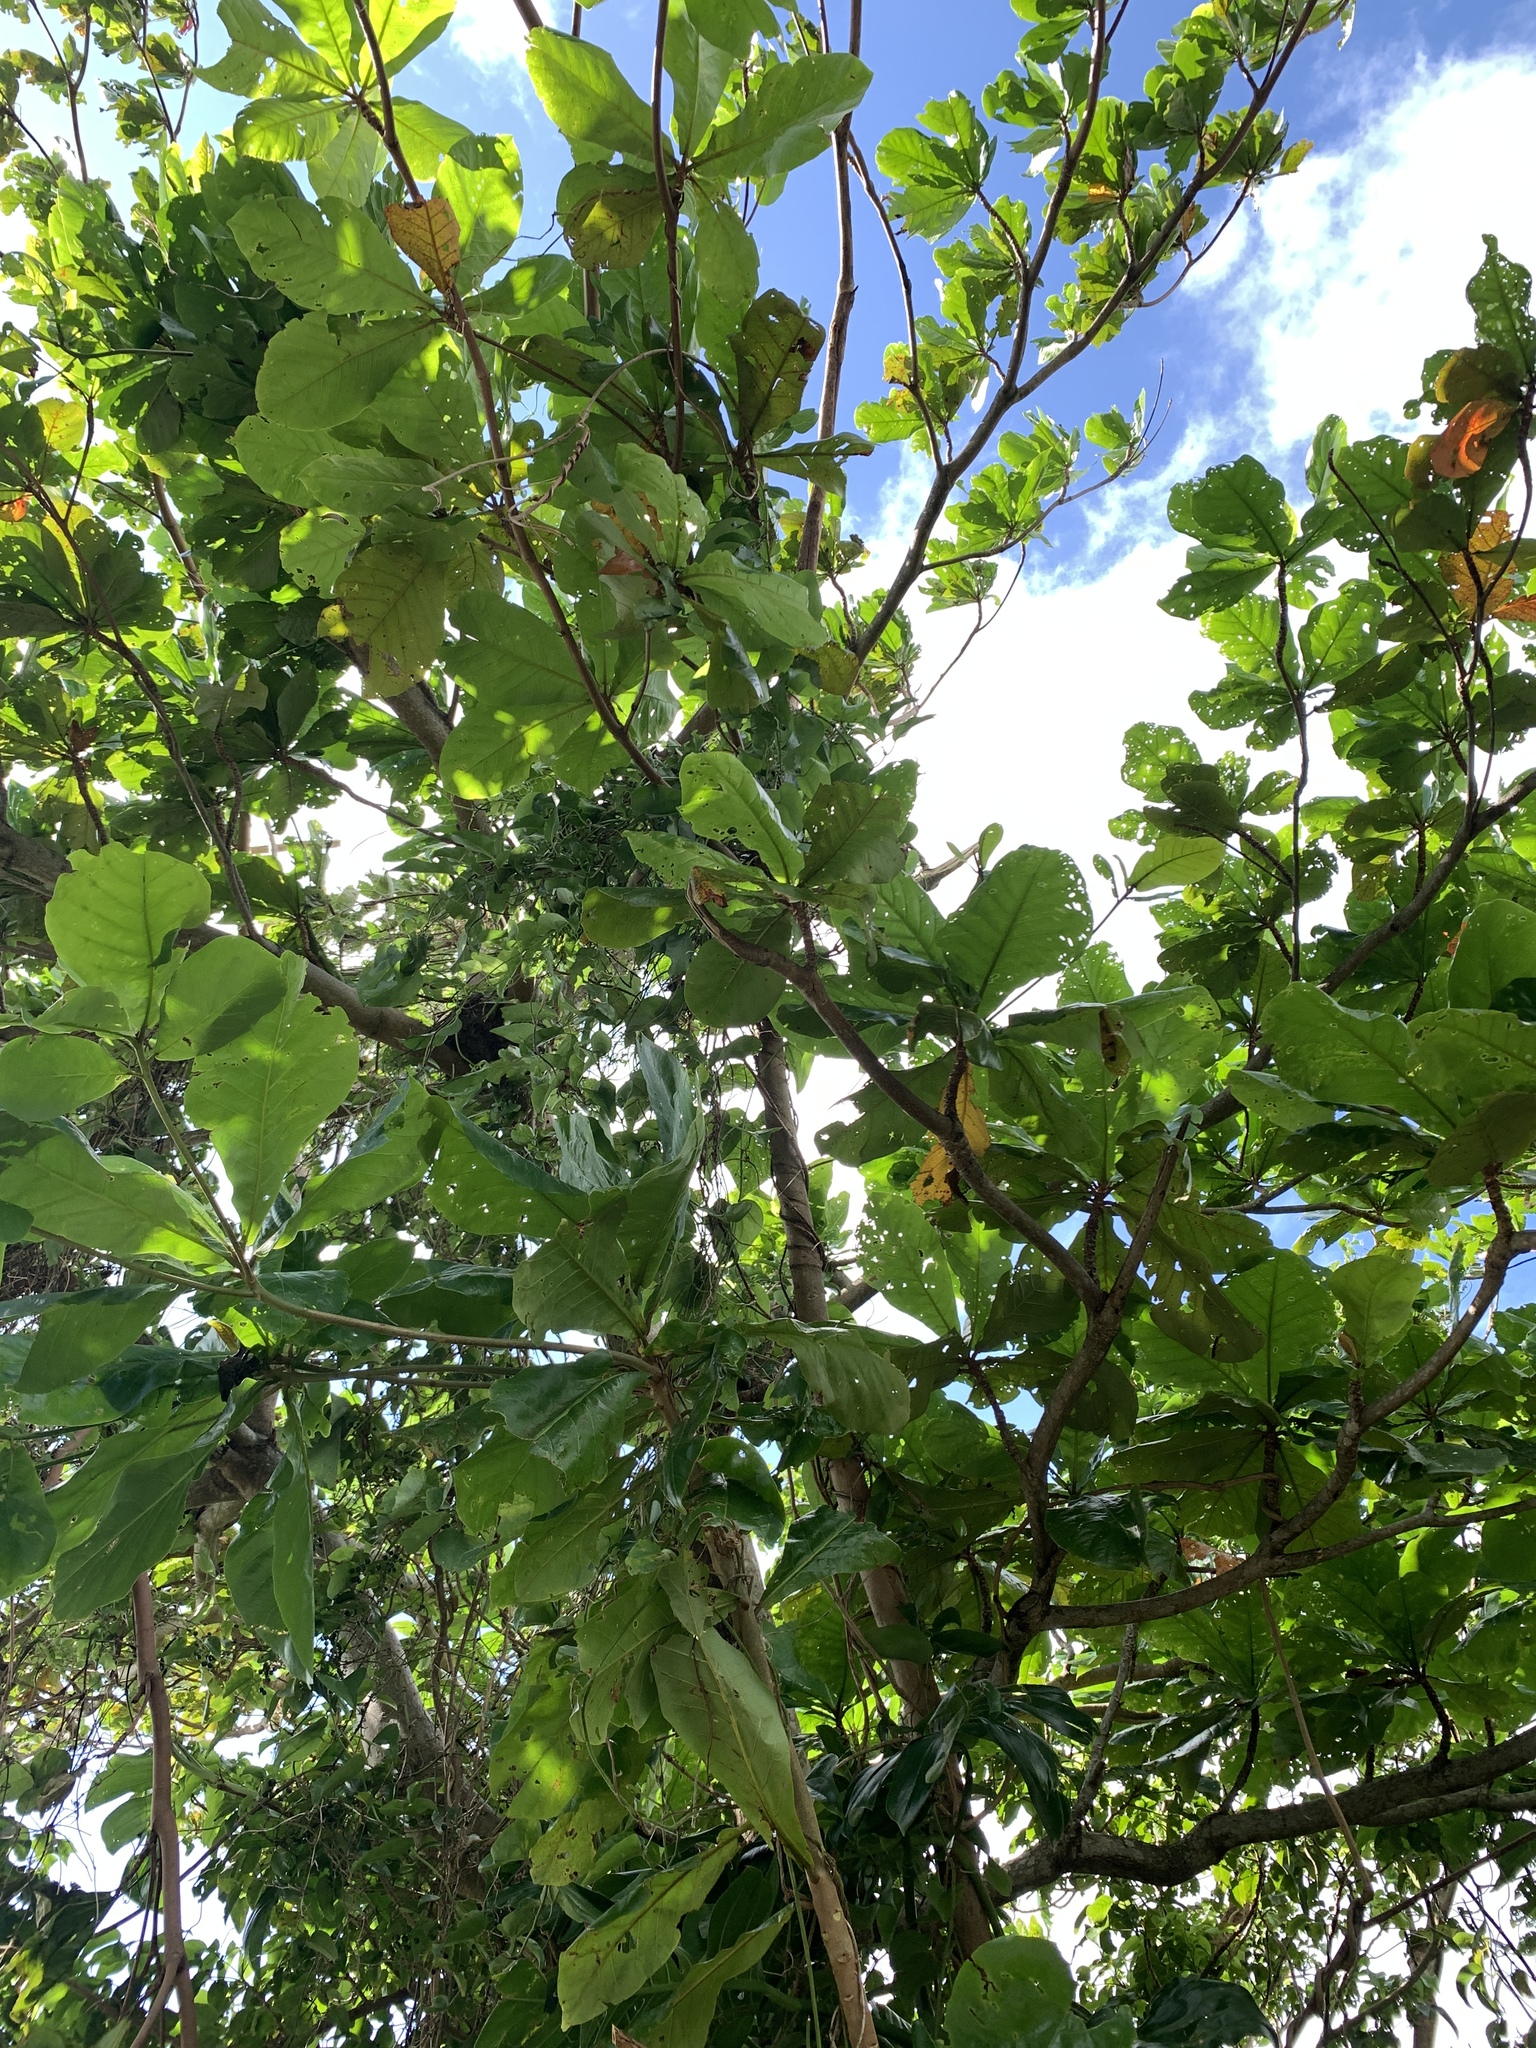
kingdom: Plantae
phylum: Tracheophyta
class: Magnoliopsida
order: Myrtales
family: Combretaceae
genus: Terminalia
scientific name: Terminalia catappa
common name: Tropical almond
